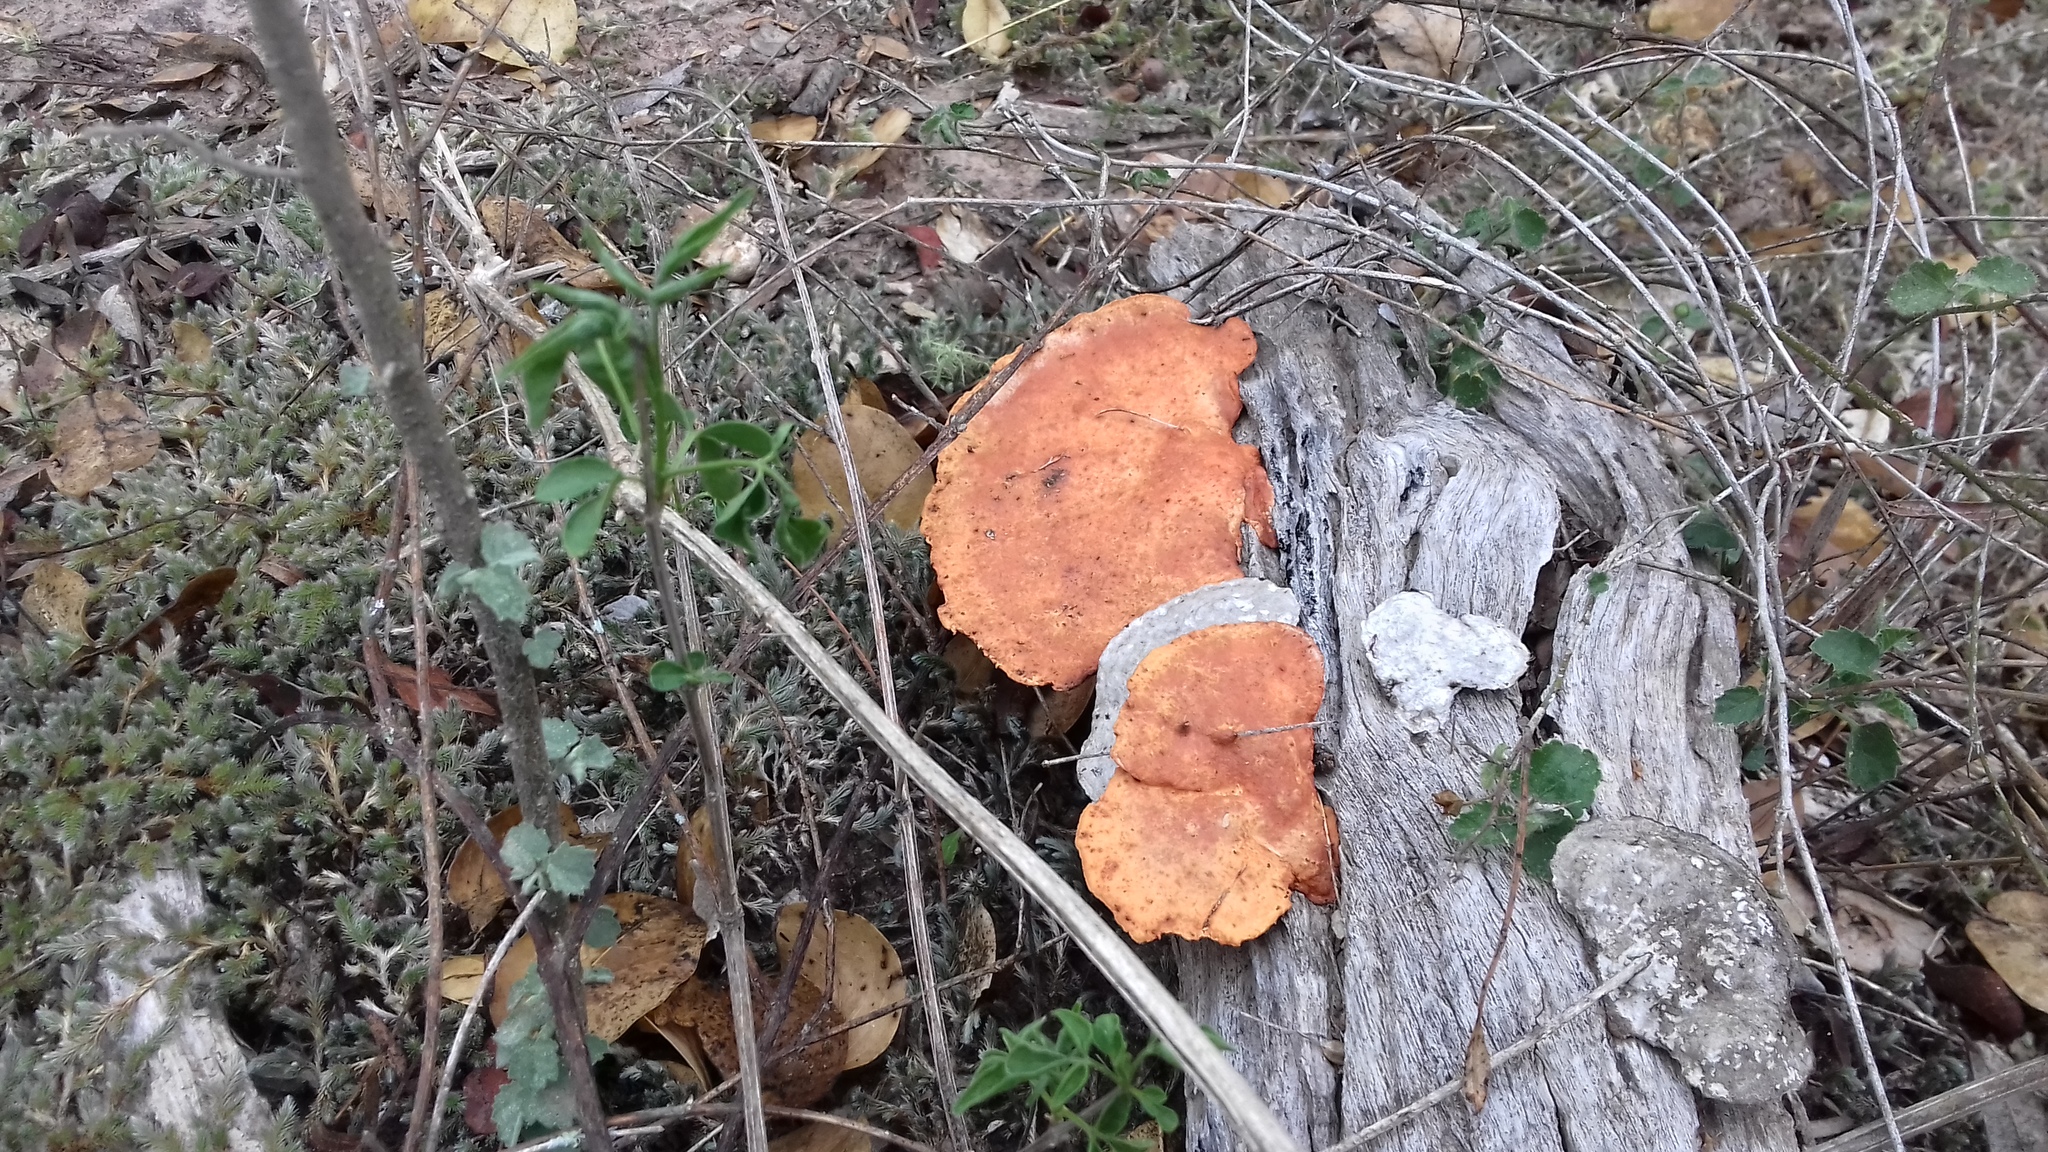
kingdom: Fungi
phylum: Basidiomycota
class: Agaricomycetes
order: Polyporales
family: Polyporaceae
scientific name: Polyporaceae
